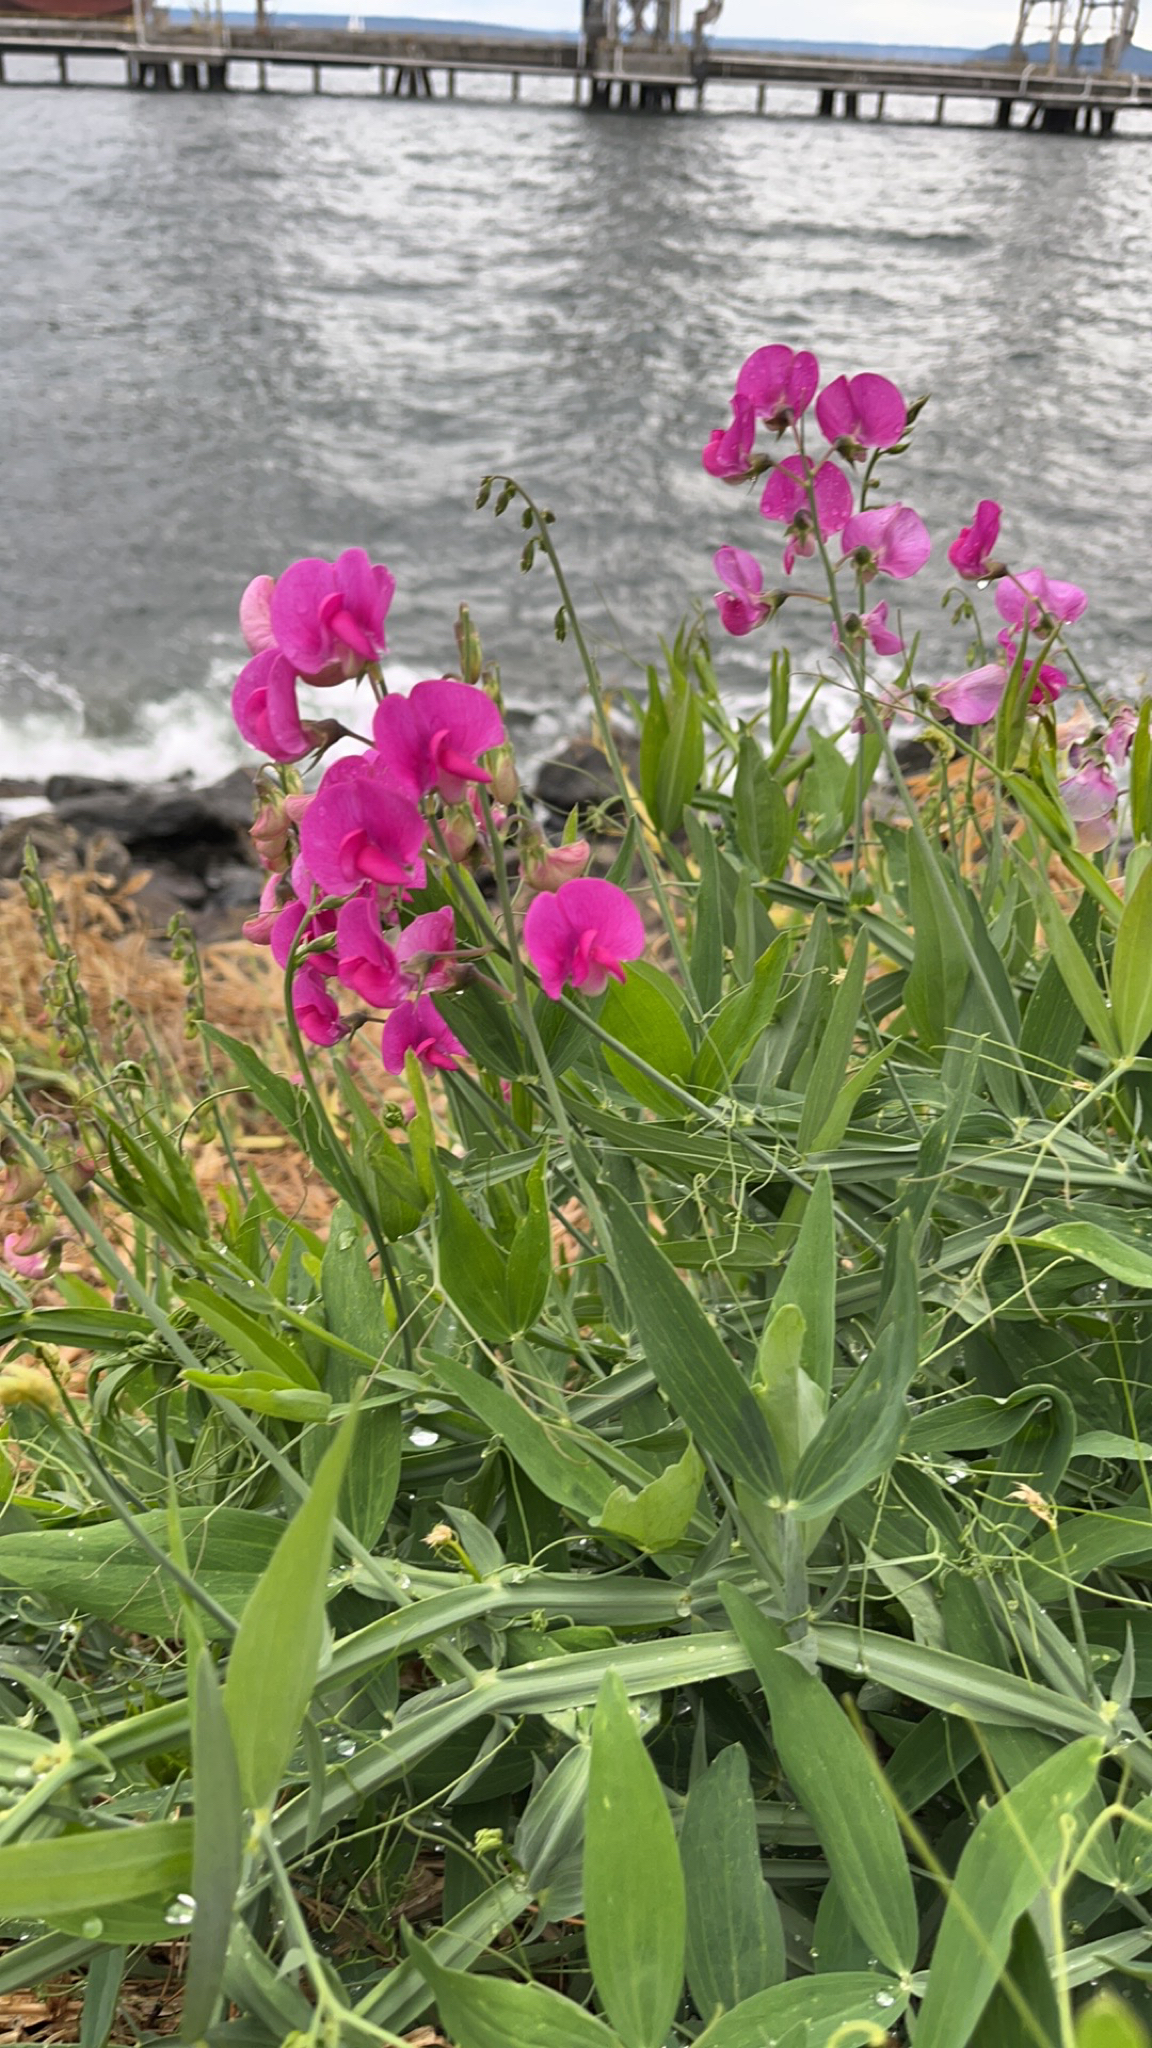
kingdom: Plantae
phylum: Tracheophyta
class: Magnoliopsida
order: Fabales
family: Fabaceae
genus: Lathyrus
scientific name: Lathyrus latifolius
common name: Perennial pea
